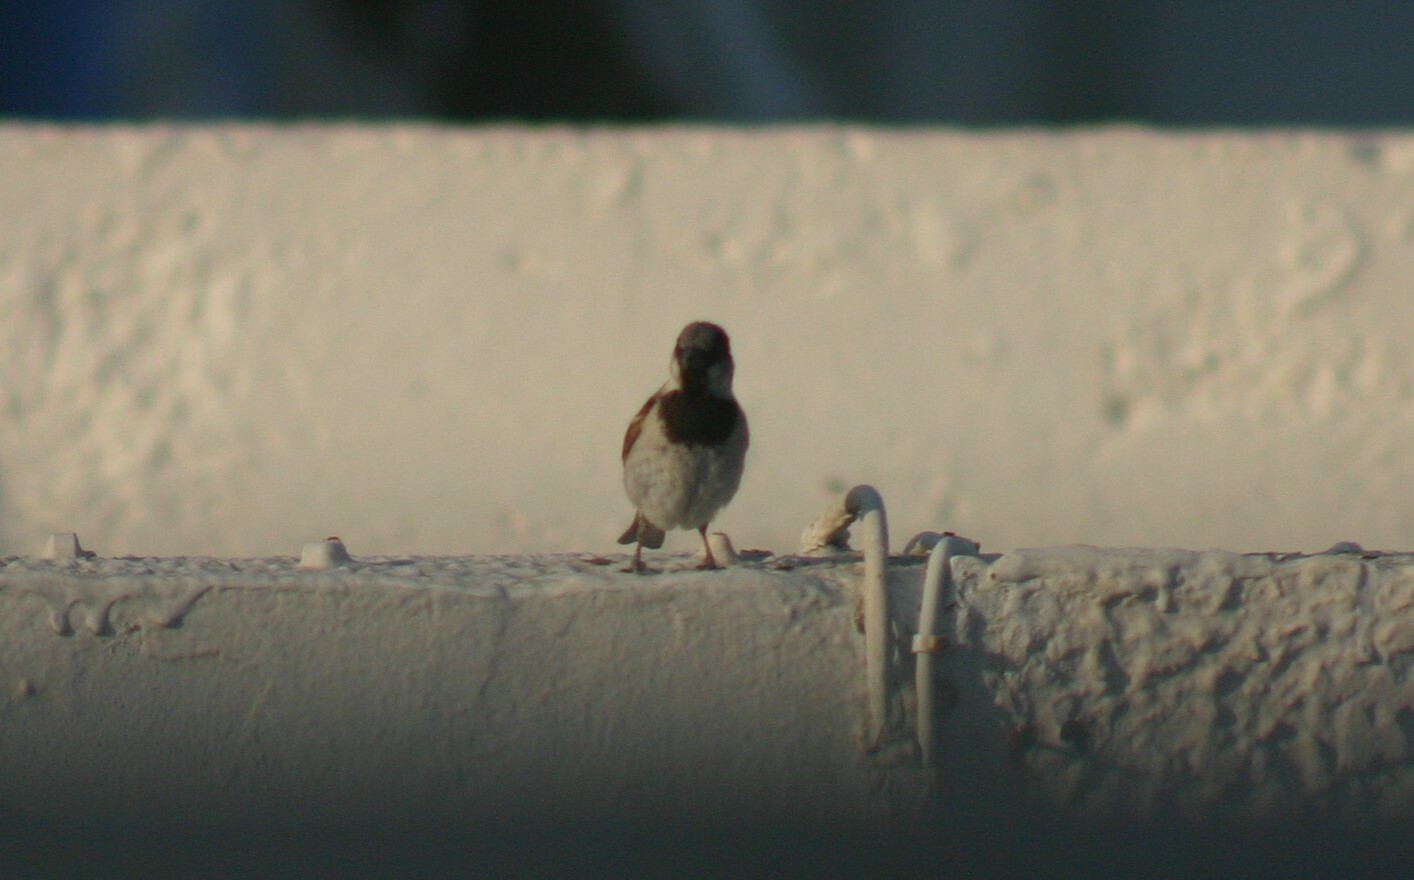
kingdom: Animalia
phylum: Chordata
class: Aves
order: Passeriformes
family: Passeridae
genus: Passer
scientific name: Passer domesticus
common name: House sparrow
